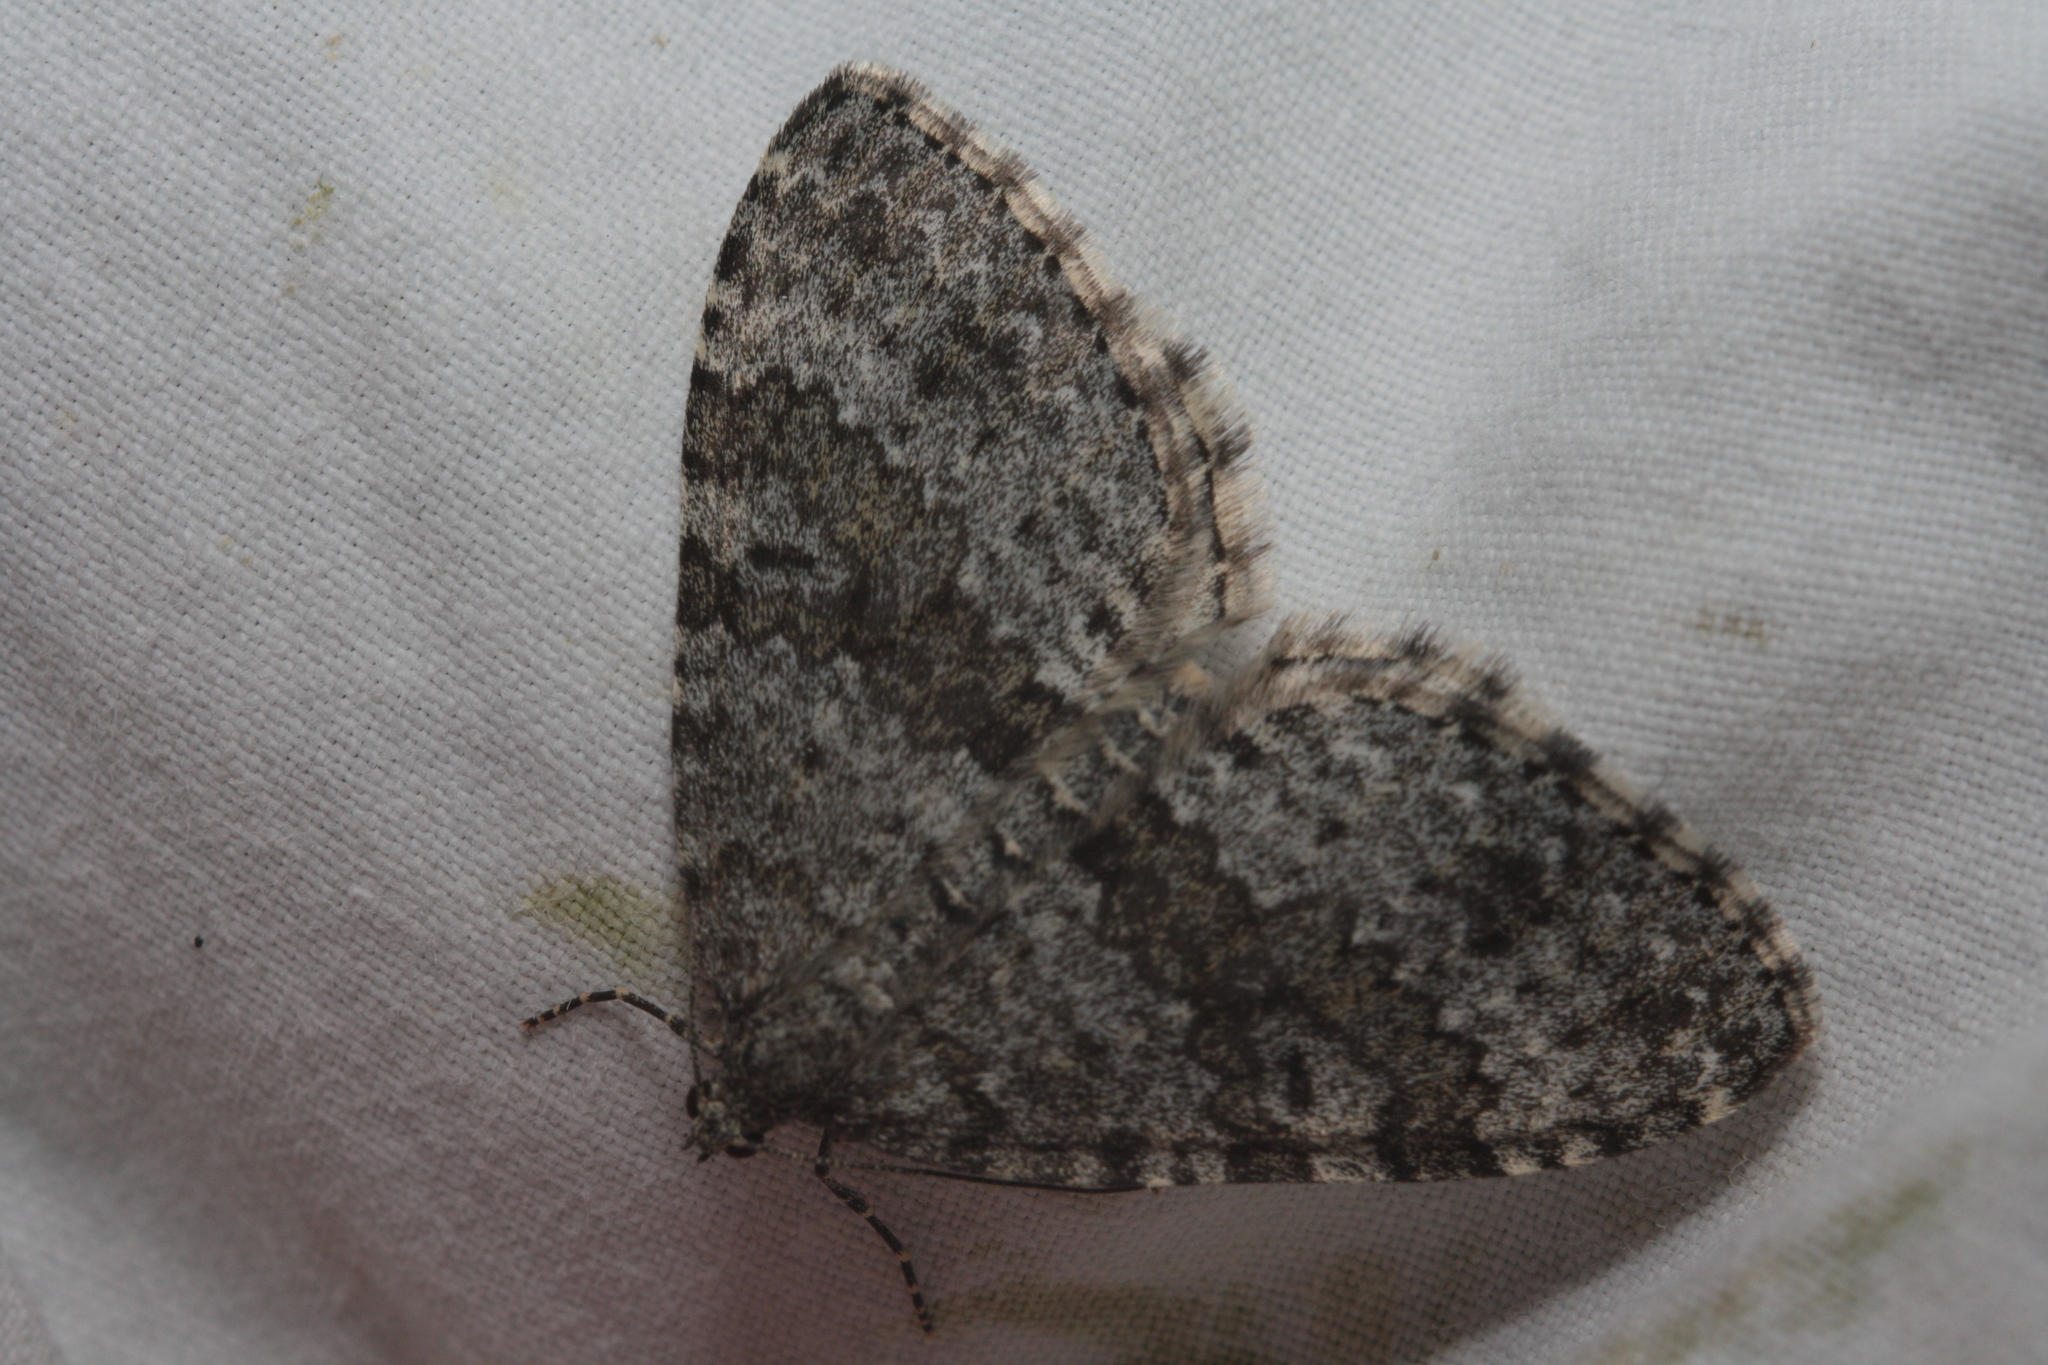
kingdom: Animalia
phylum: Arthropoda
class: Insecta
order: Lepidoptera
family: Geometridae
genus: Entephria
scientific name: Entephria caesiata
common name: Grey mountain moth
